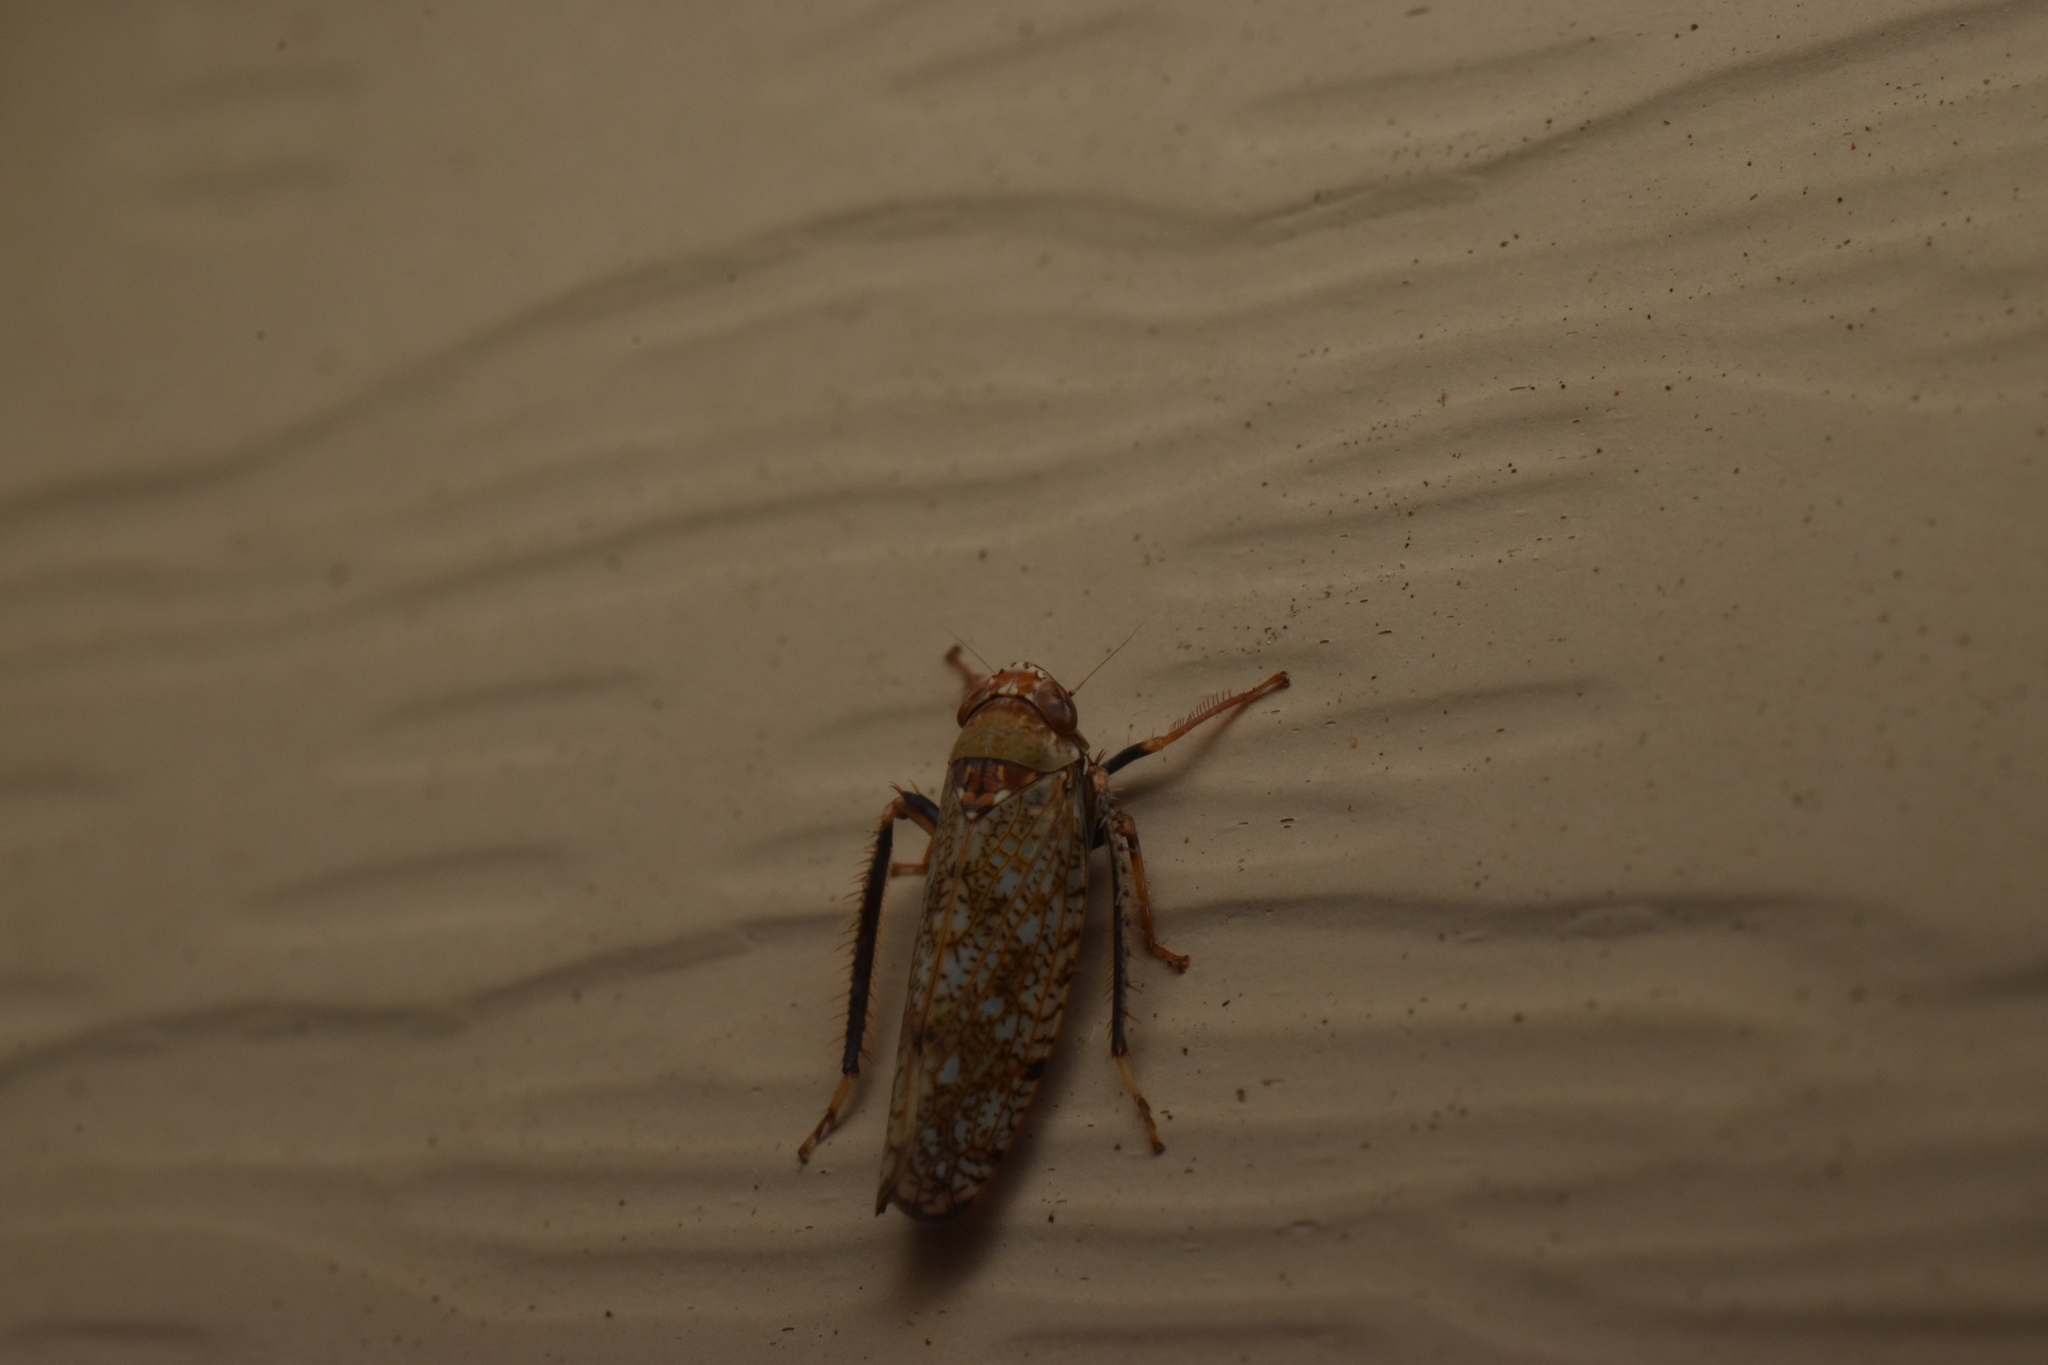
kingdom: Animalia
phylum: Arthropoda
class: Insecta
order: Hemiptera
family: Cicadellidae
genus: Orientus
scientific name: Orientus ishidae
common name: Japanese leafhopper
